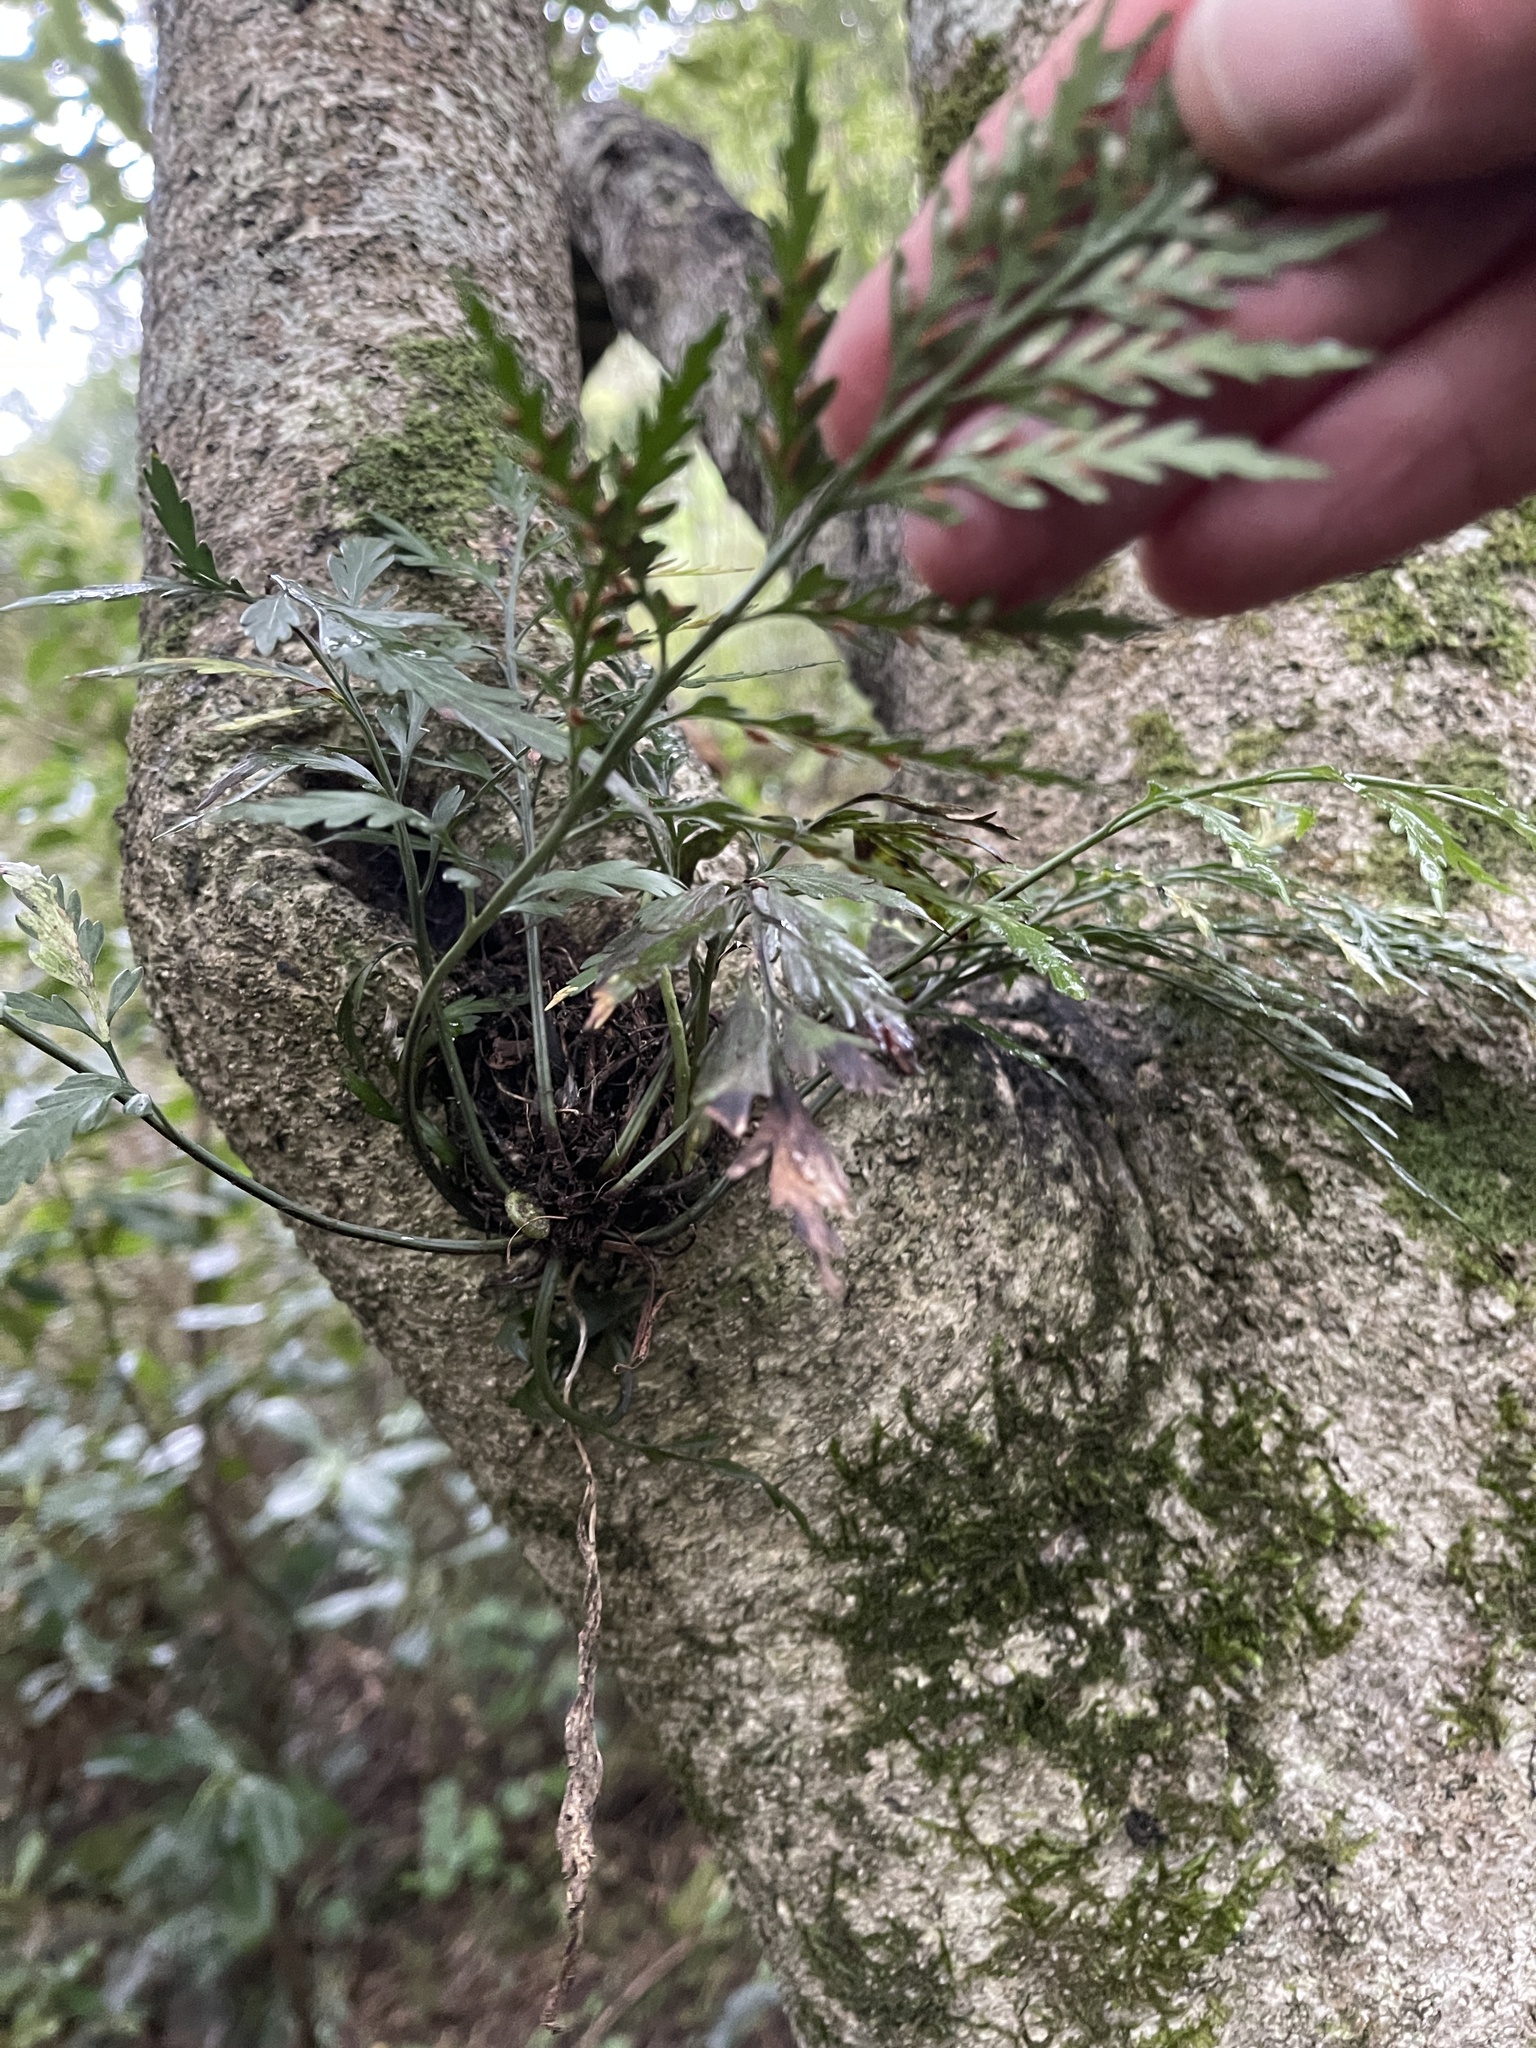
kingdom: Plantae
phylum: Tracheophyta
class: Polypodiopsida
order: Polypodiales
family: Aspleniaceae
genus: Asplenium
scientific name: Asplenium flaccidum
